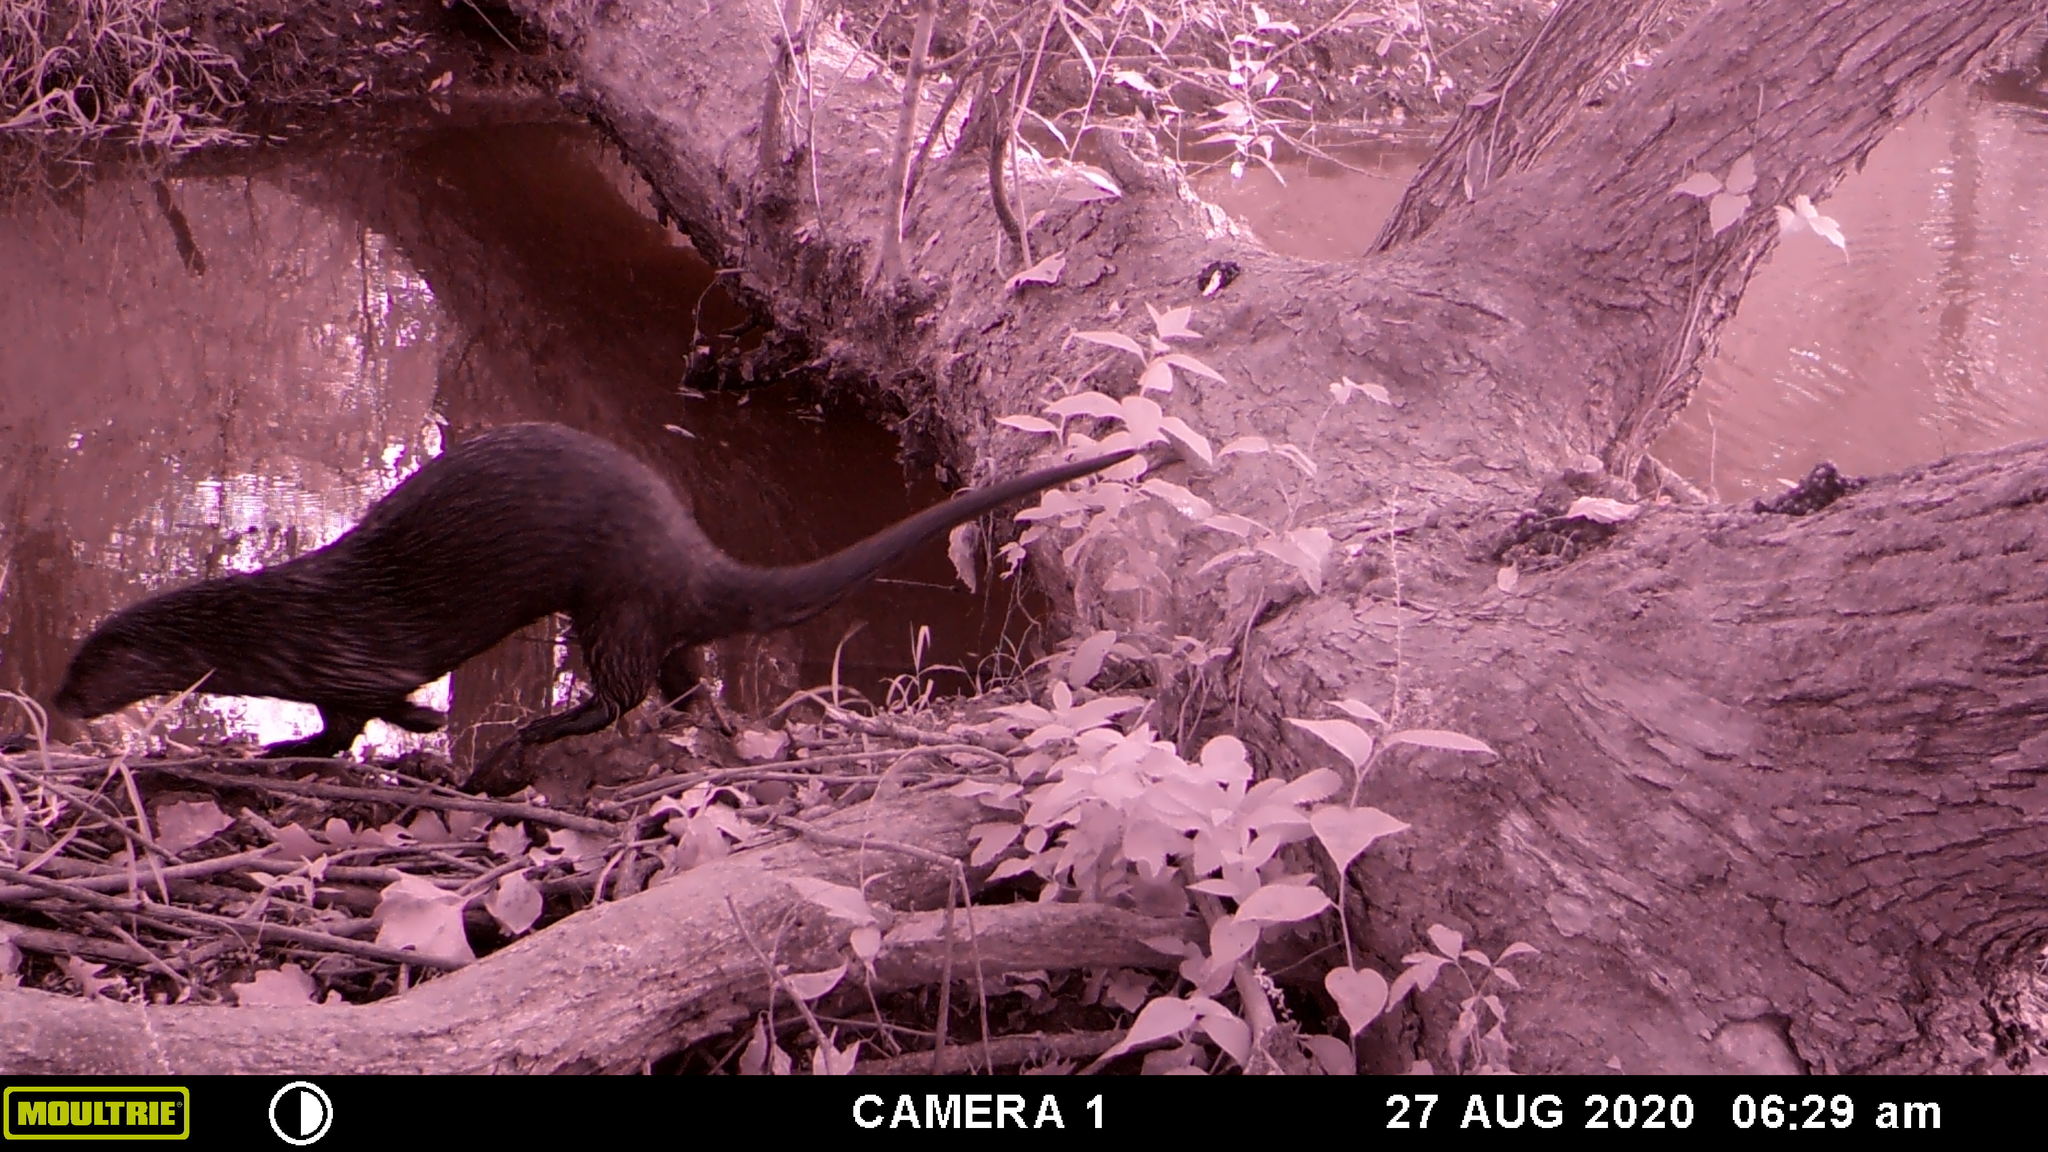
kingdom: Animalia
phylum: Chordata
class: Mammalia
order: Carnivora
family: Mustelidae
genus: Lontra
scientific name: Lontra canadensis
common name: North american river otter
